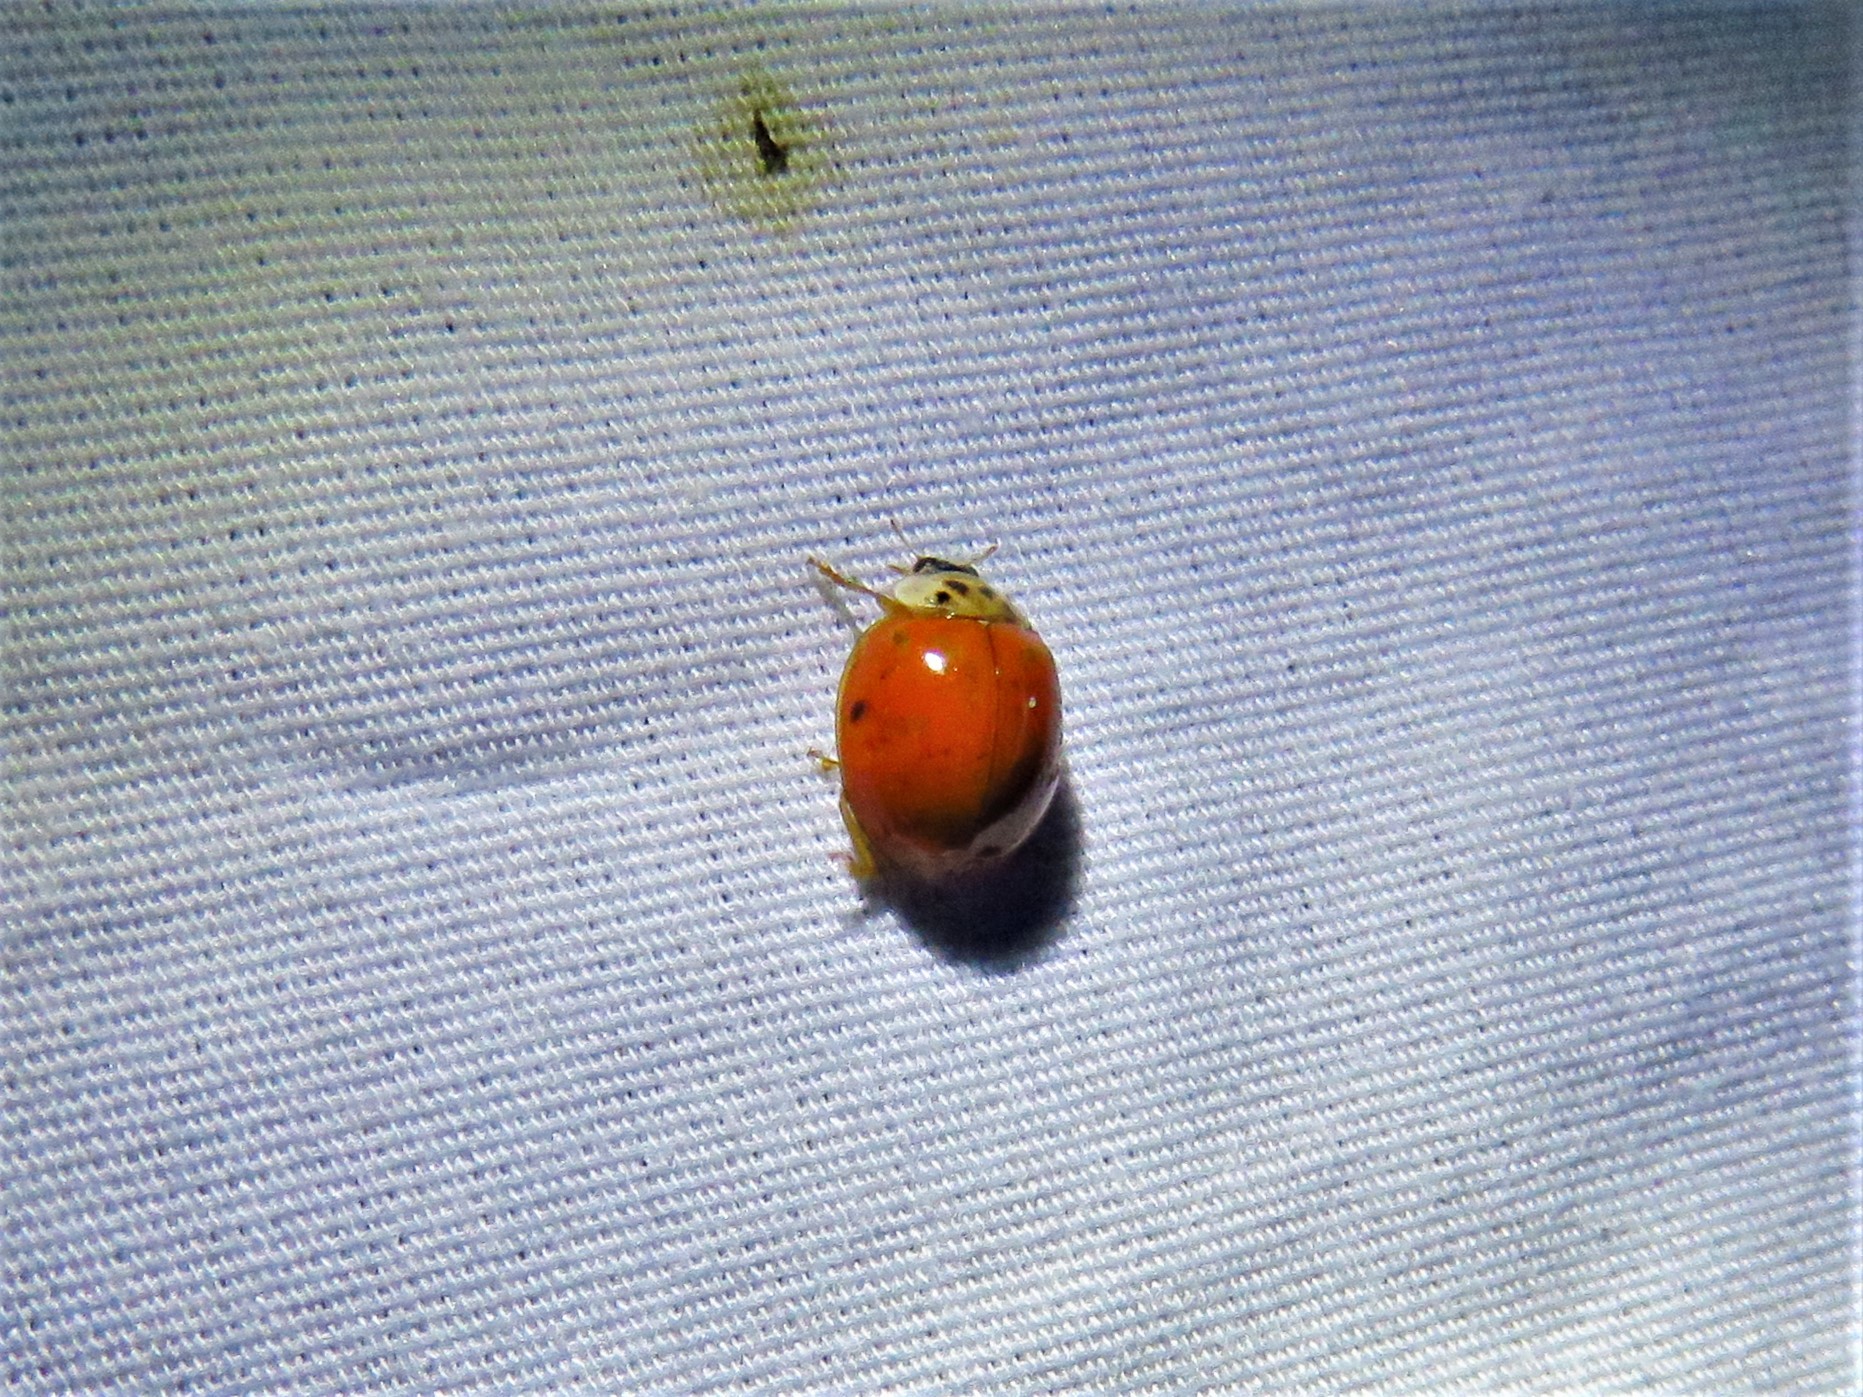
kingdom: Animalia
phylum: Arthropoda
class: Insecta
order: Coleoptera
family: Coccinellidae
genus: Harmonia
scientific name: Harmonia axyridis
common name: Harlequin ladybird
